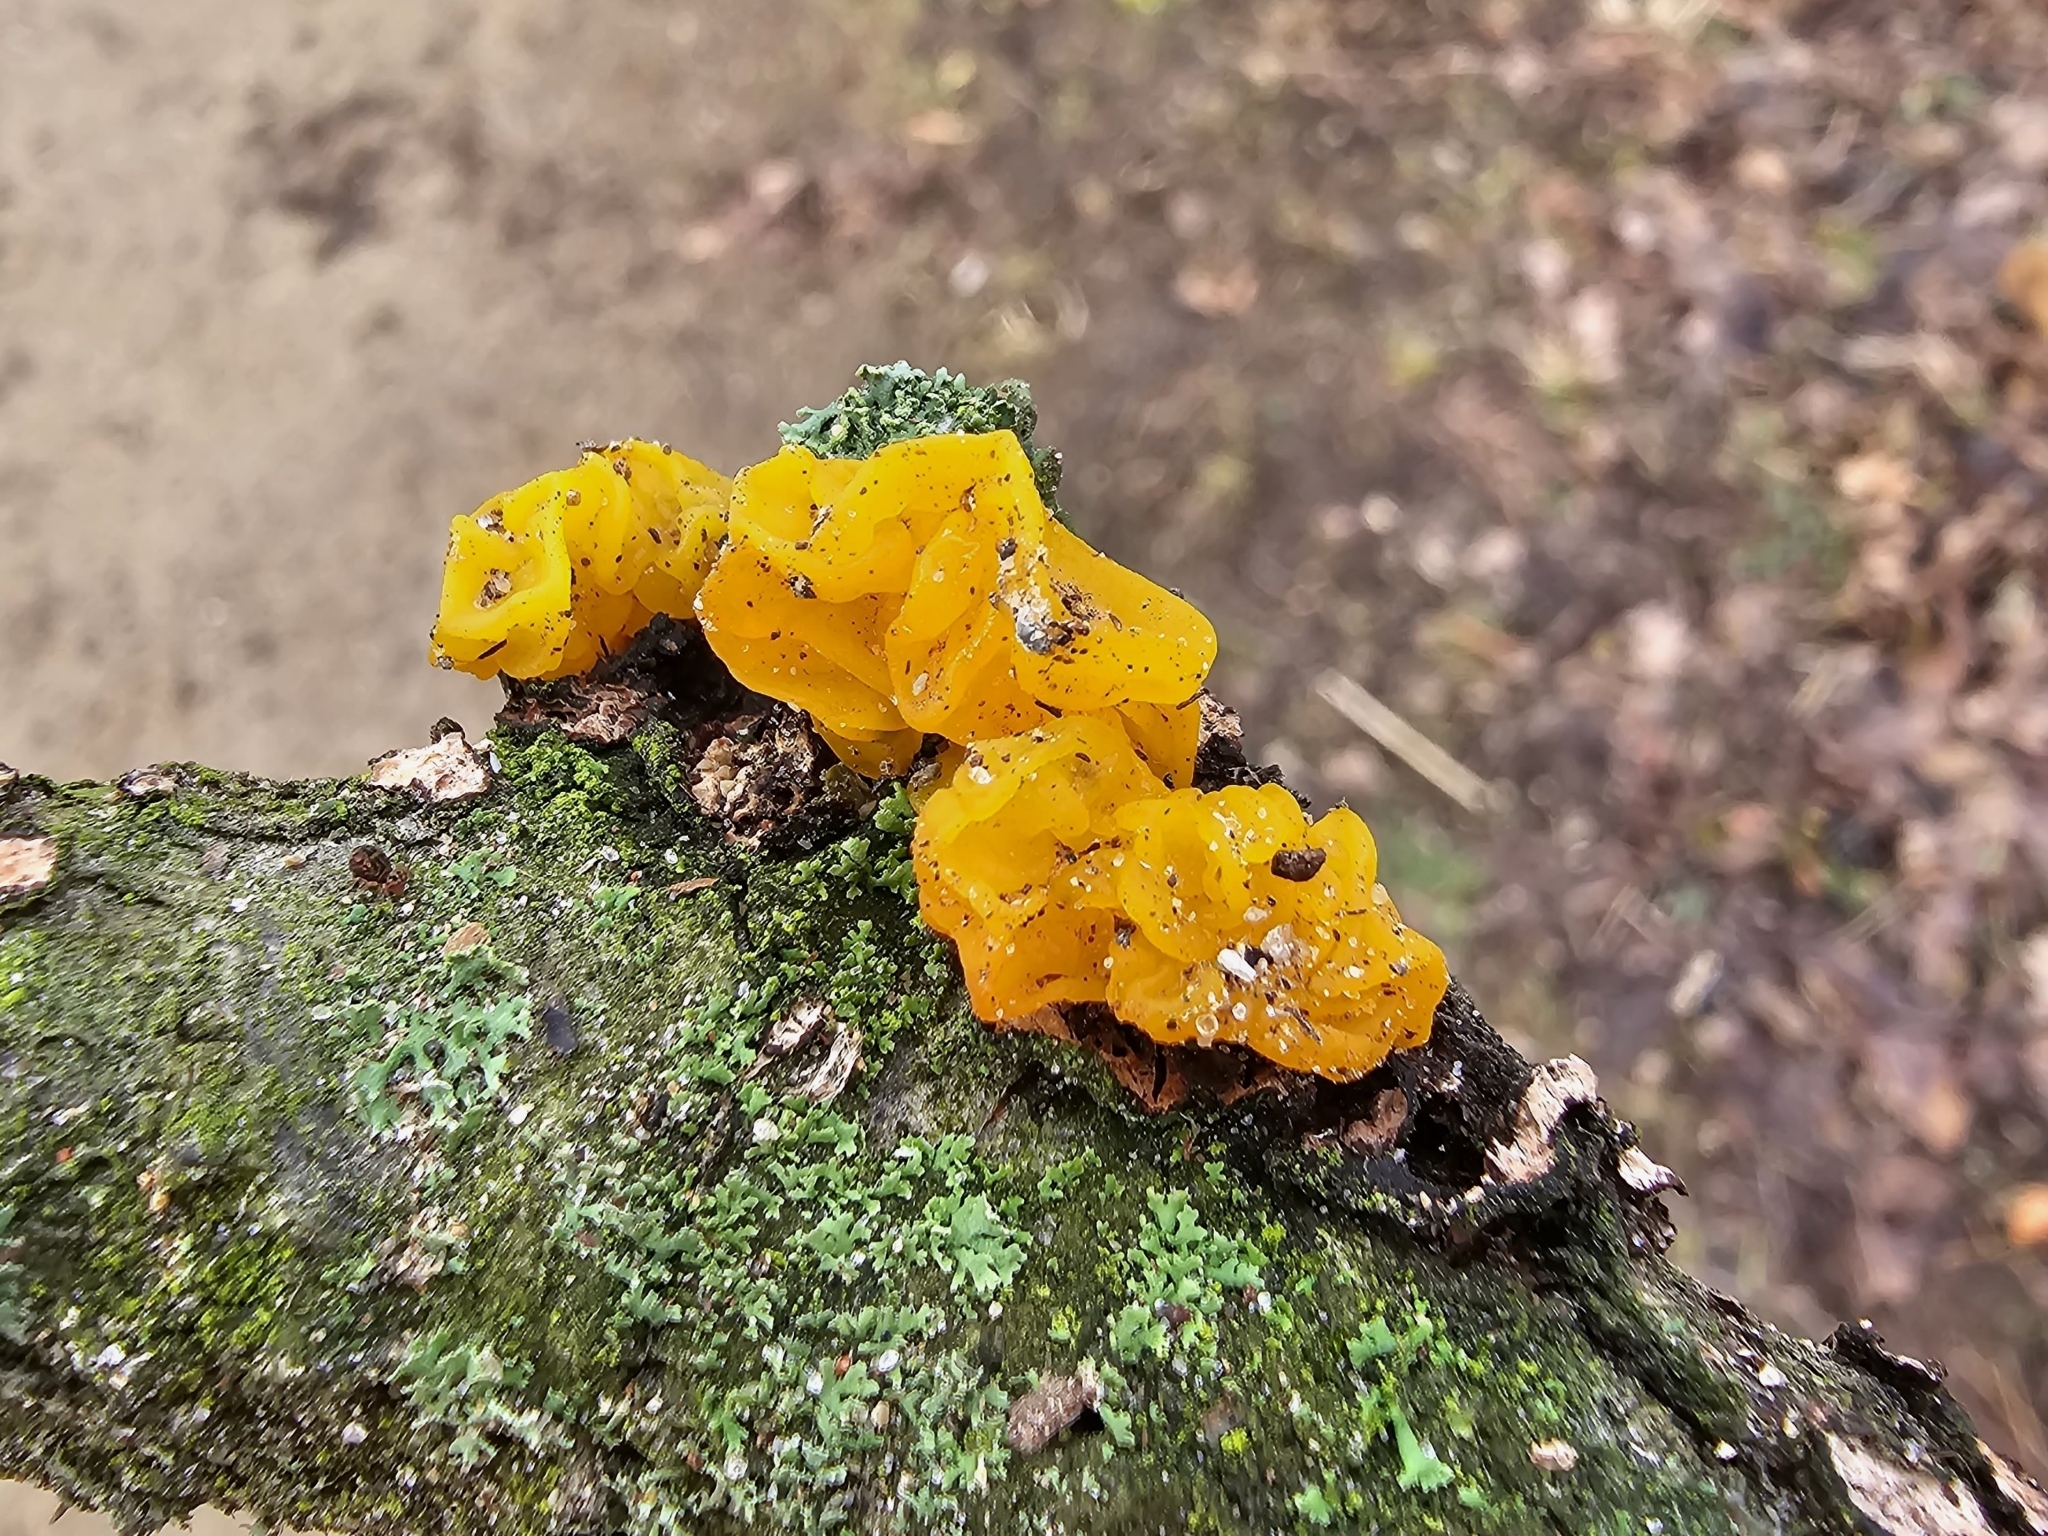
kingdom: Fungi
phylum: Basidiomycota
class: Tremellomycetes
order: Tremellales
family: Tremellaceae
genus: Tremella
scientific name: Tremella mesenterica
